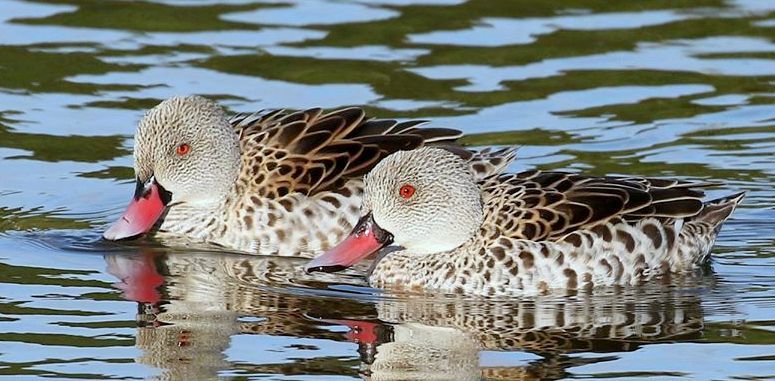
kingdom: Animalia
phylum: Chordata
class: Aves
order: Anseriformes
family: Anatidae
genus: Anas
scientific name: Anas capensis
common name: Cape teal
